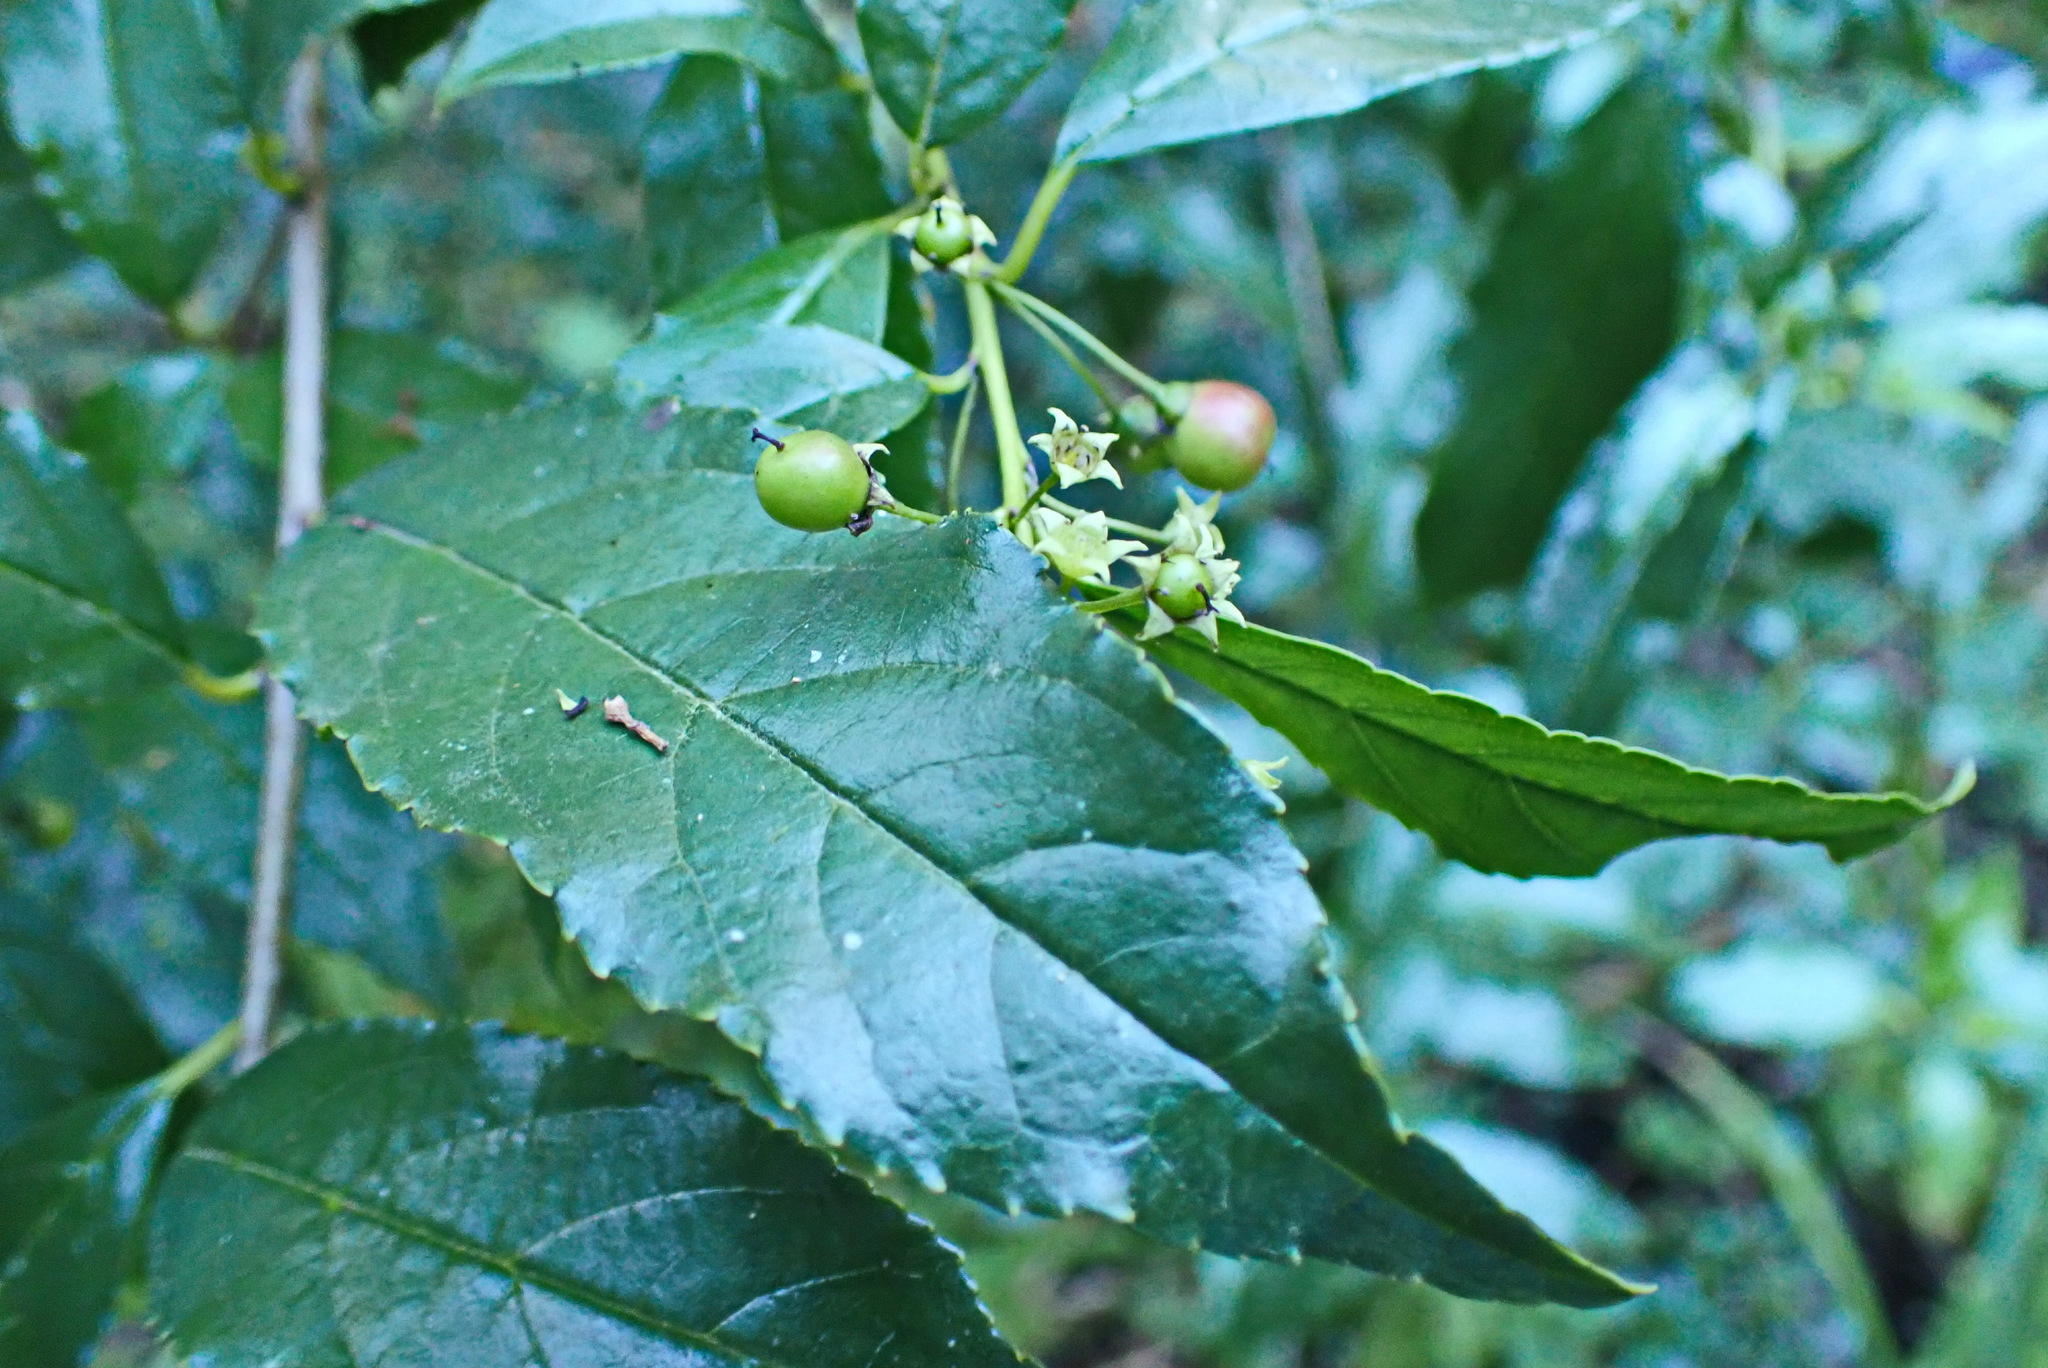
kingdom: Plantae
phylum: Tracheophyta
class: Magnoliopsida
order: Rosales
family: Rhamnaceae
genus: Rhamnus
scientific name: Rhamnus prinoides
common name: Dogwood
